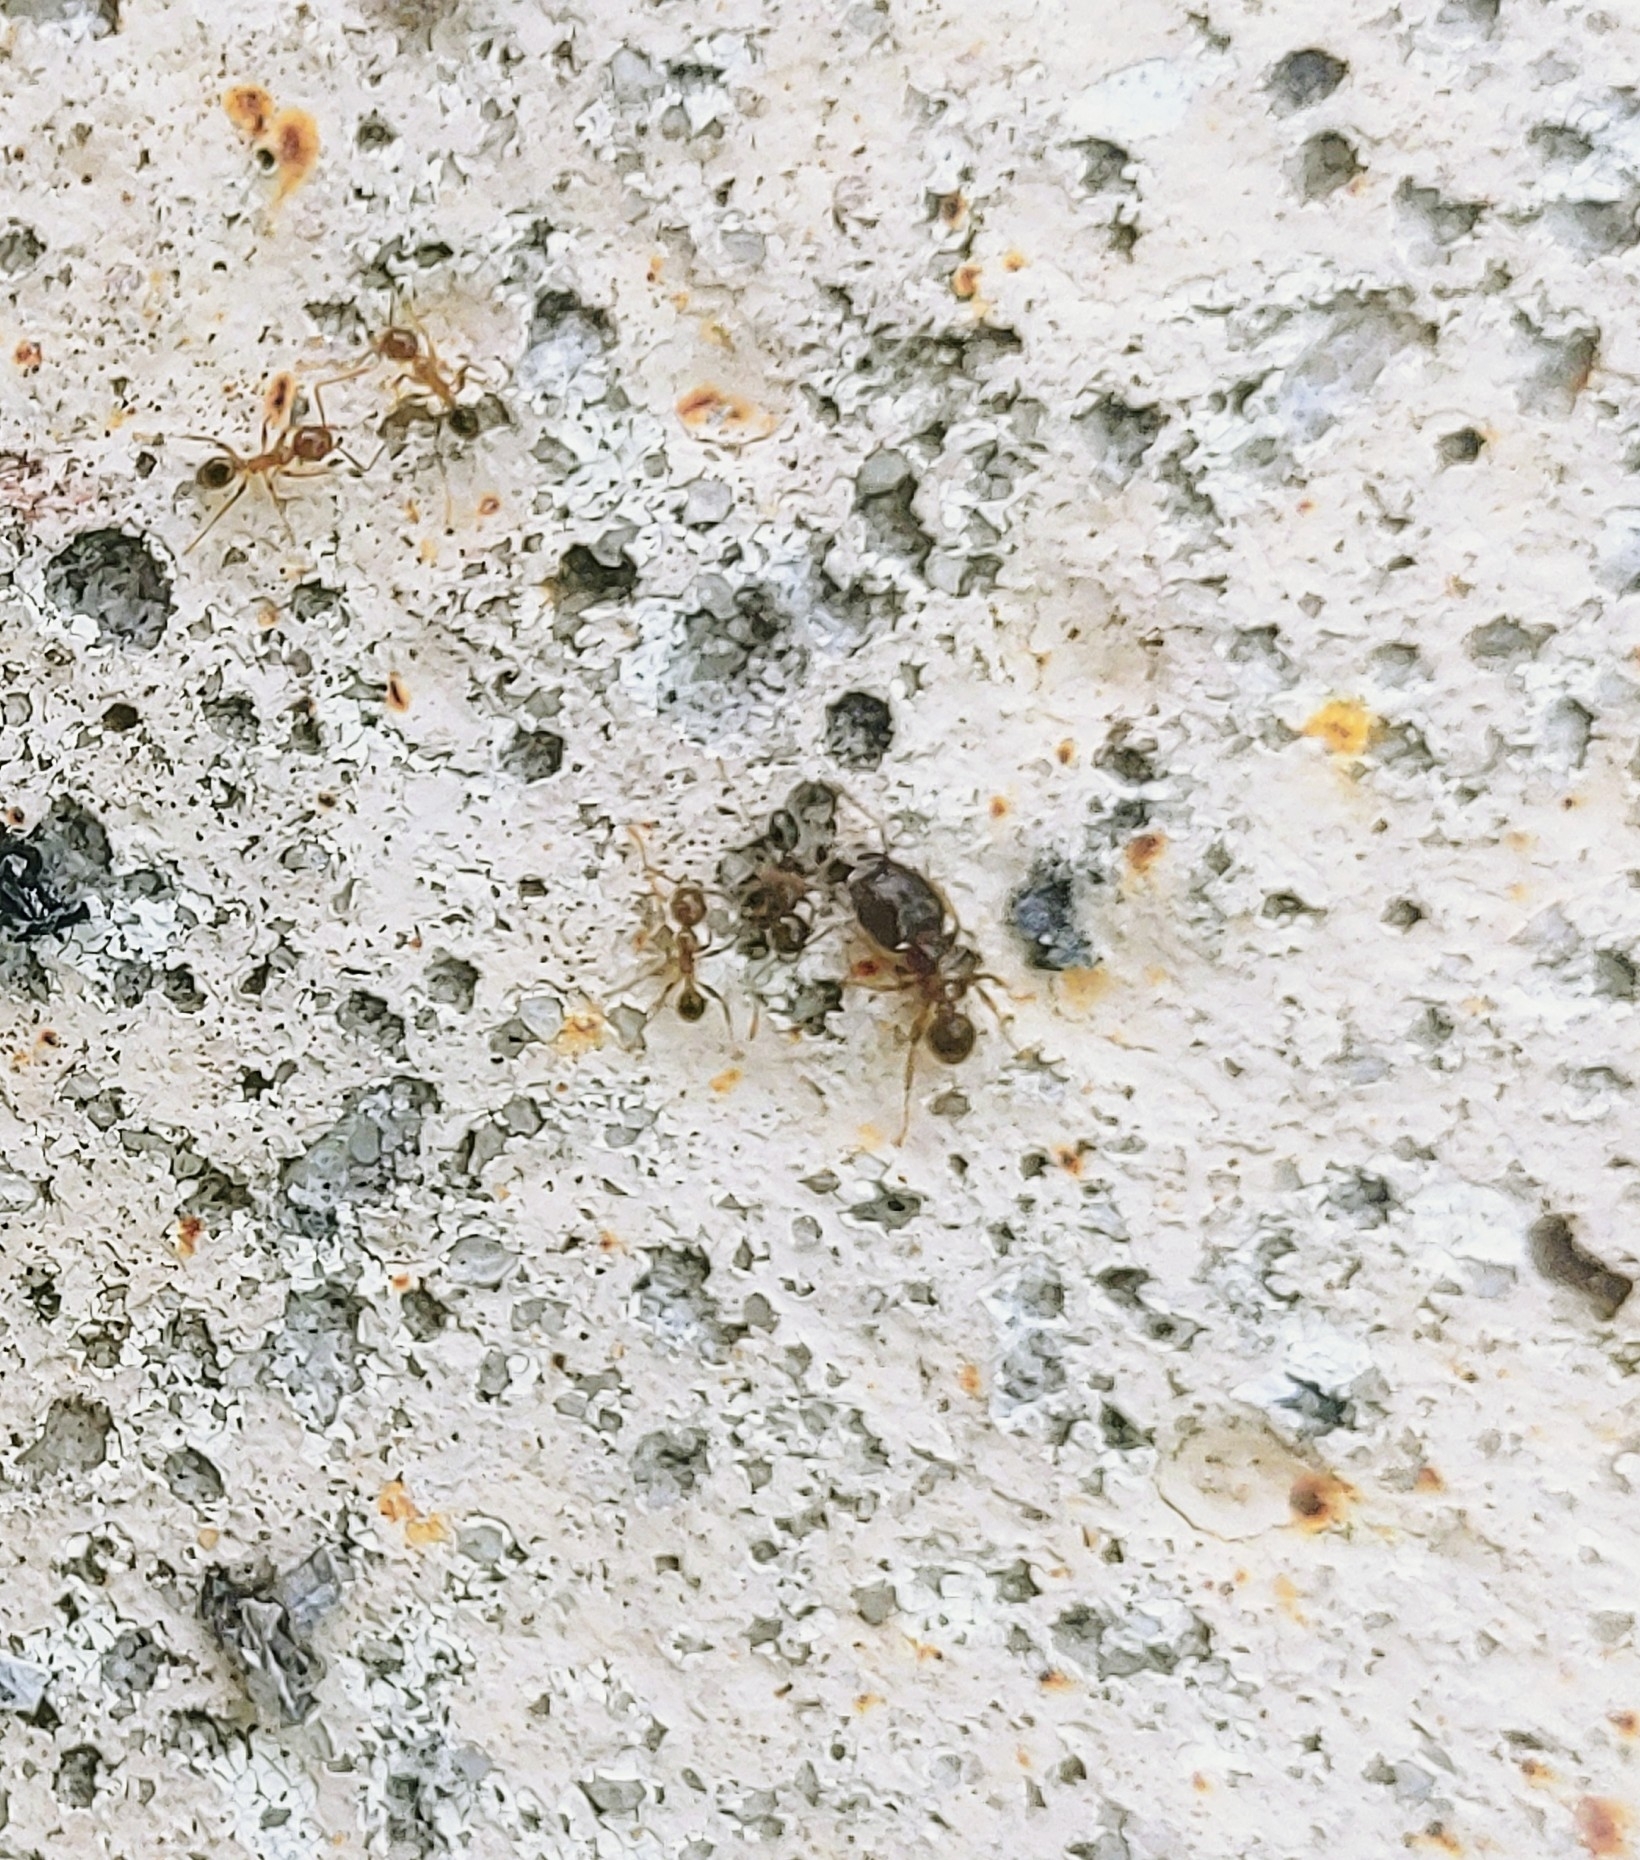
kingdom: Animalia
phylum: Arthropoda
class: Insecta
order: Hymenoptera
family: Formicidae
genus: Pheidole
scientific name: Pheidole megacephala
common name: Bigheaded ant
